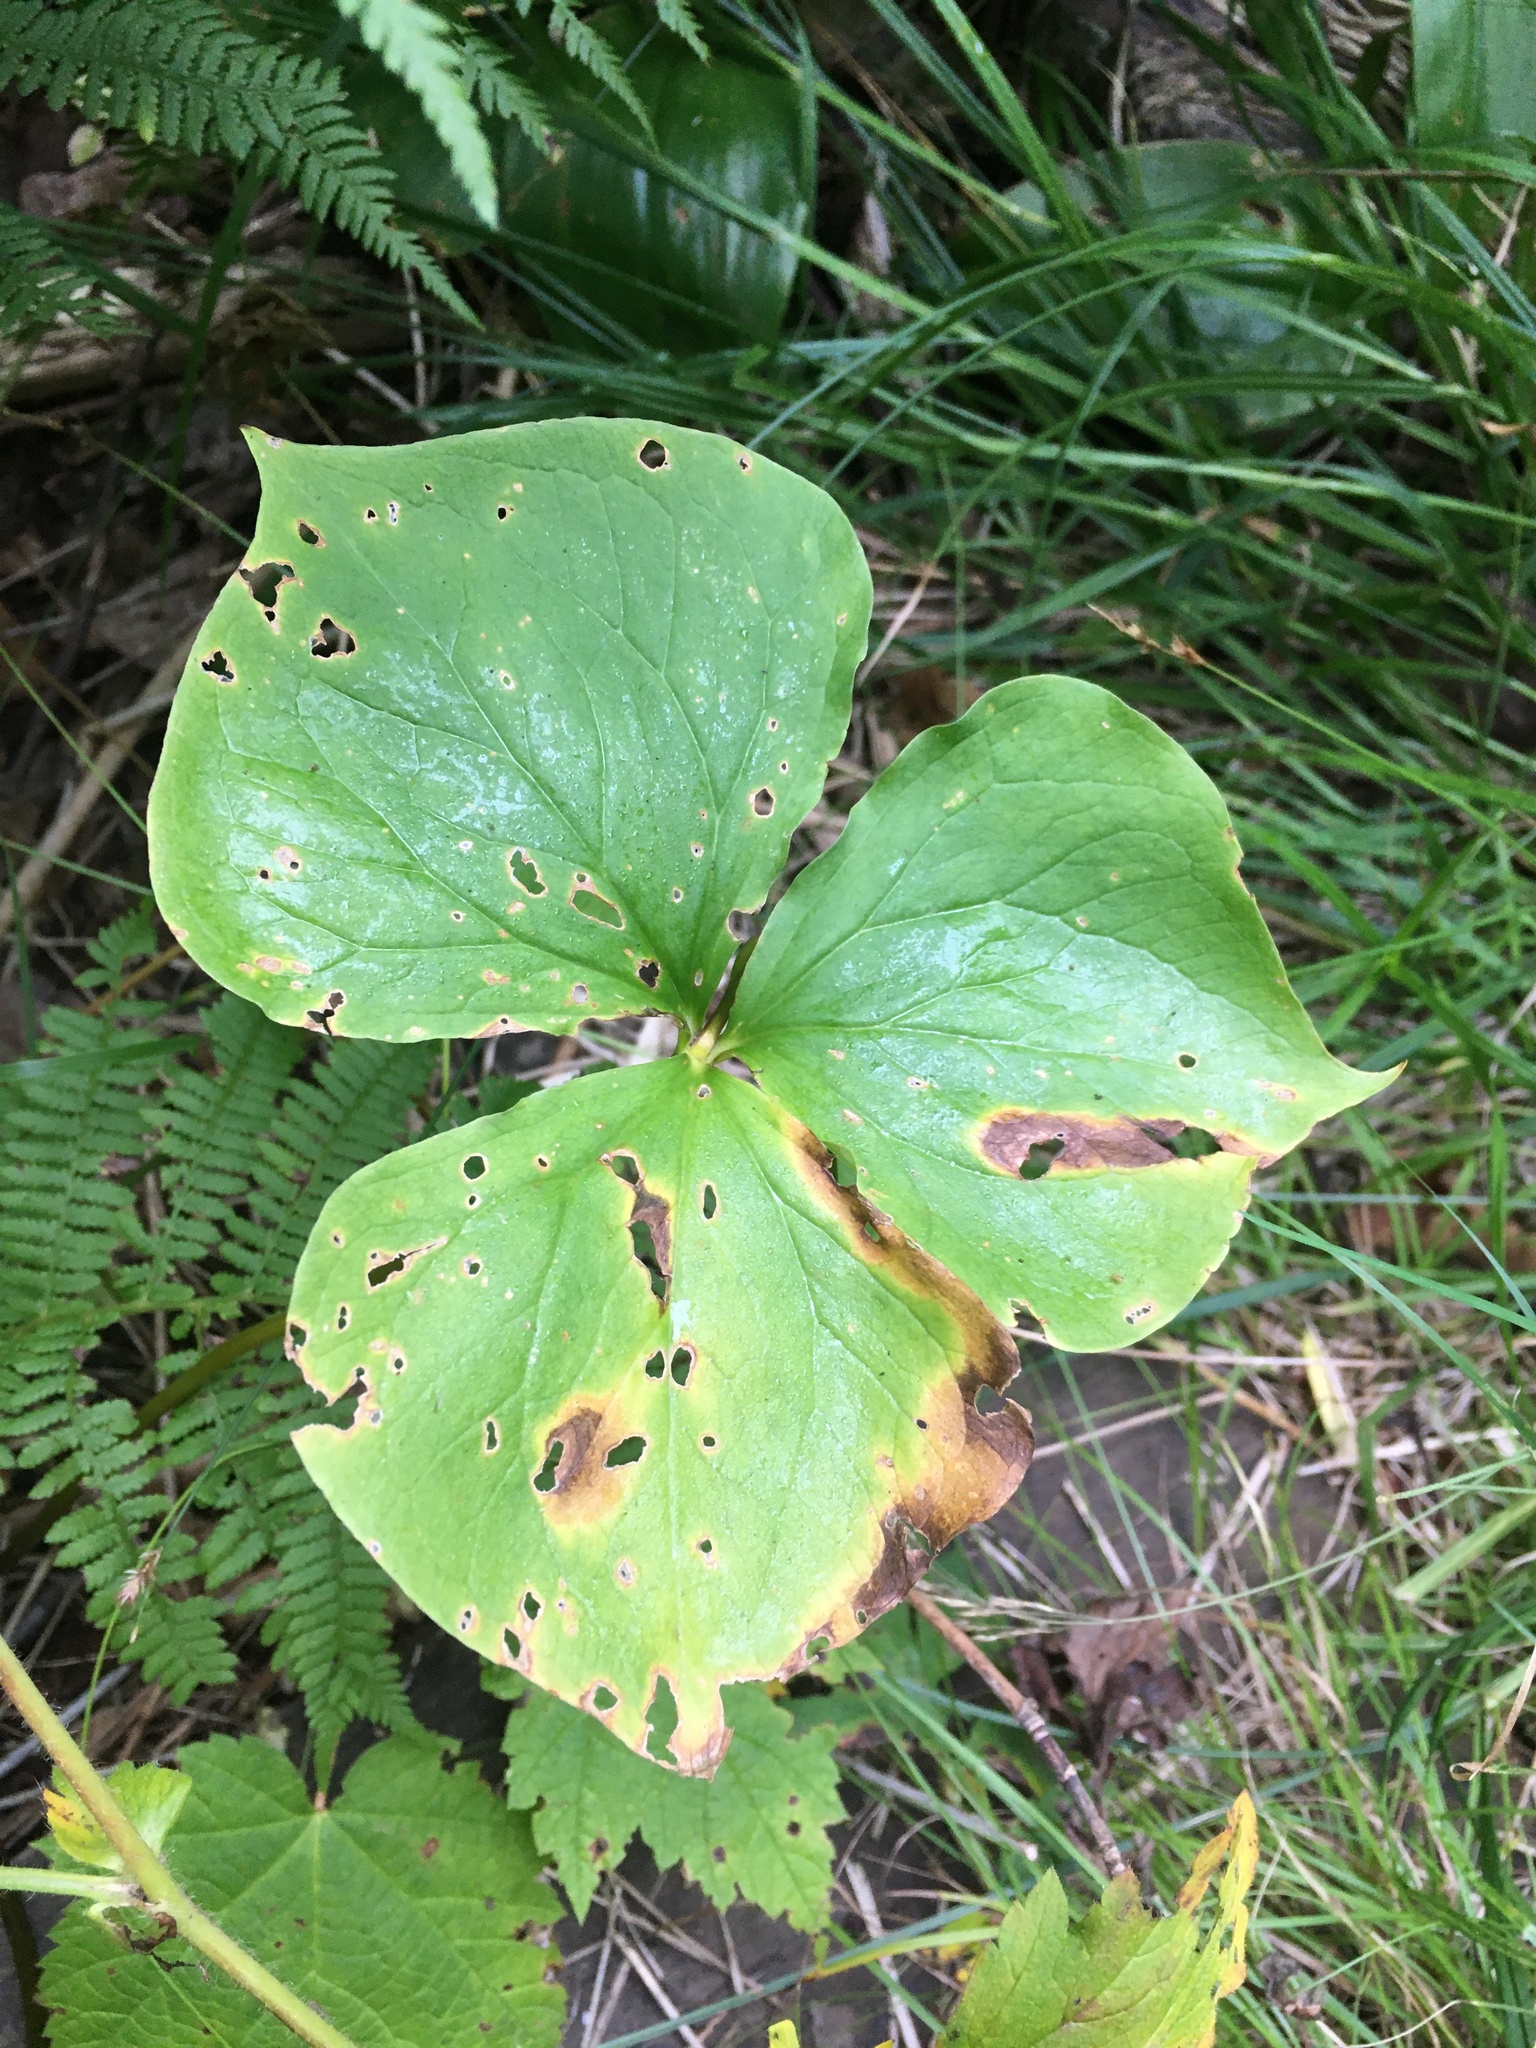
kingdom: Plantae
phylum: Tracheophyta
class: Liliopsida
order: Liliales
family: Melanthiaceae
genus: Trillium
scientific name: Trillium cernuum
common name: Nodding trillium
